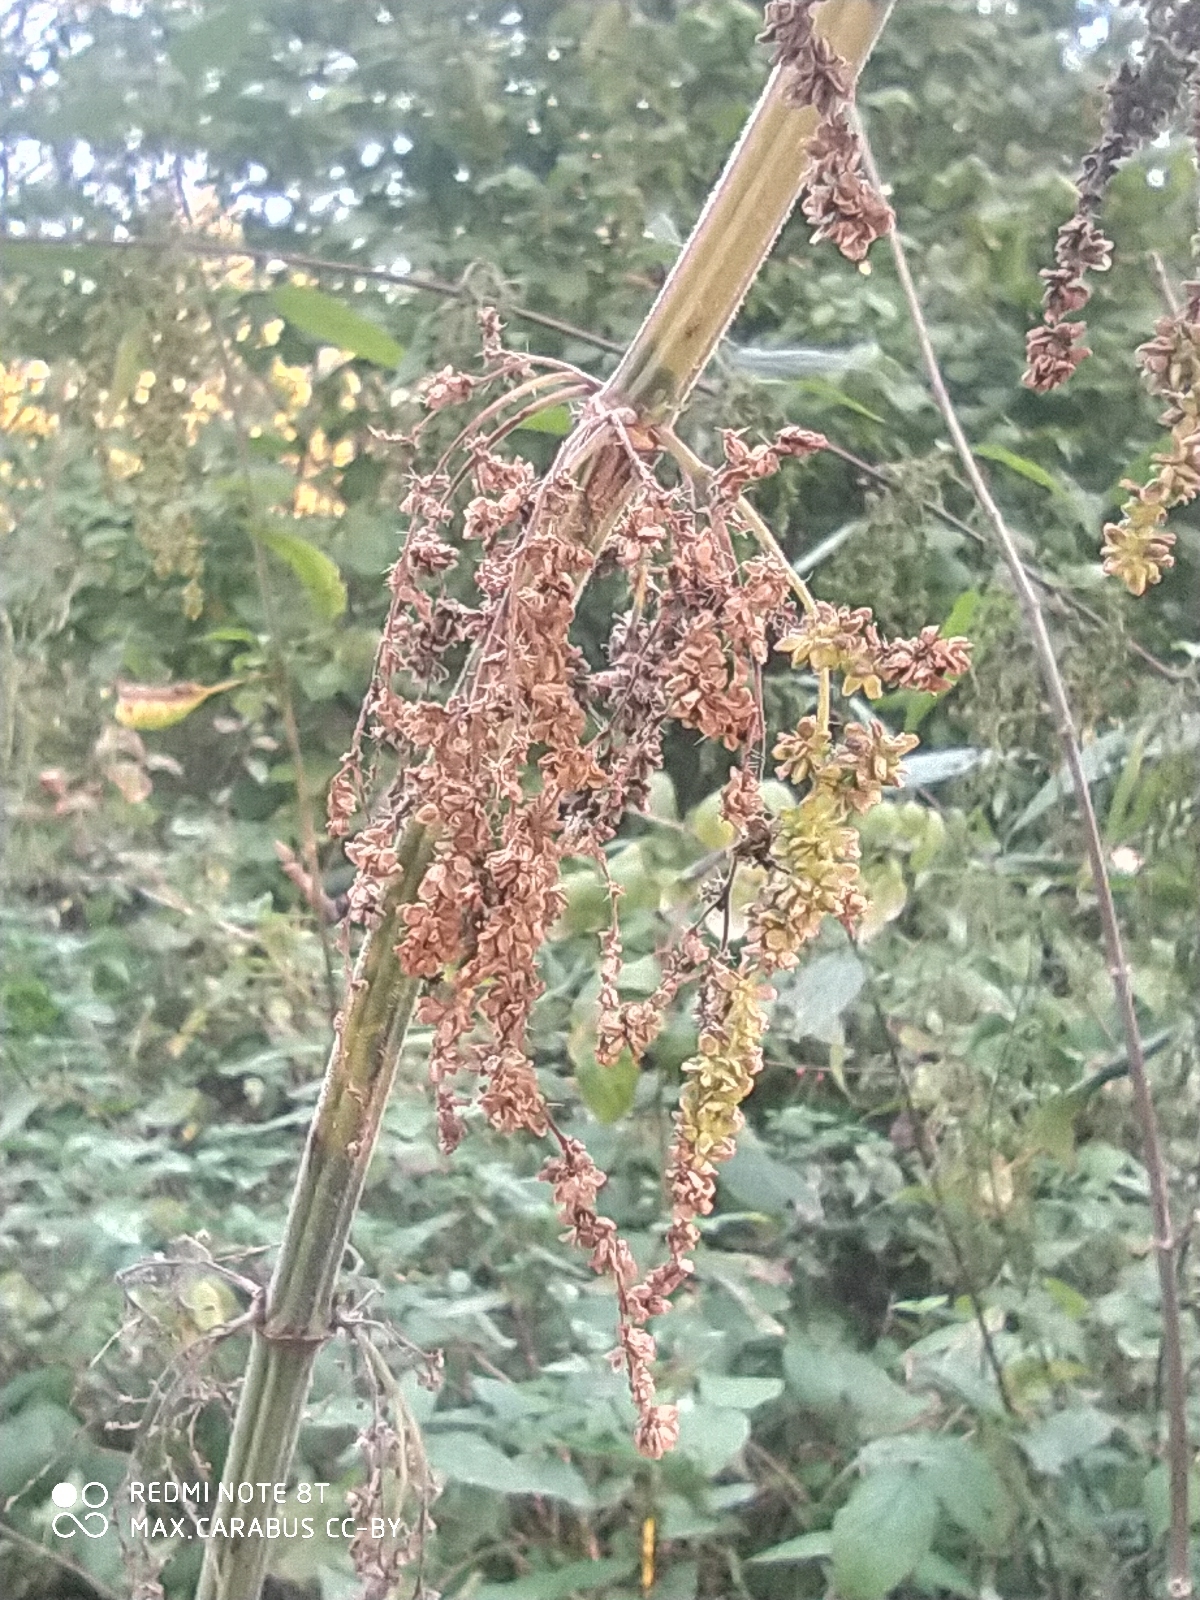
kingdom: Plantae
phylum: Tracheophyta
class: Magnoliopsida
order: Rosales
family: Urticaceae
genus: Urtica
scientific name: Urtica dioica
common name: Common nettle
